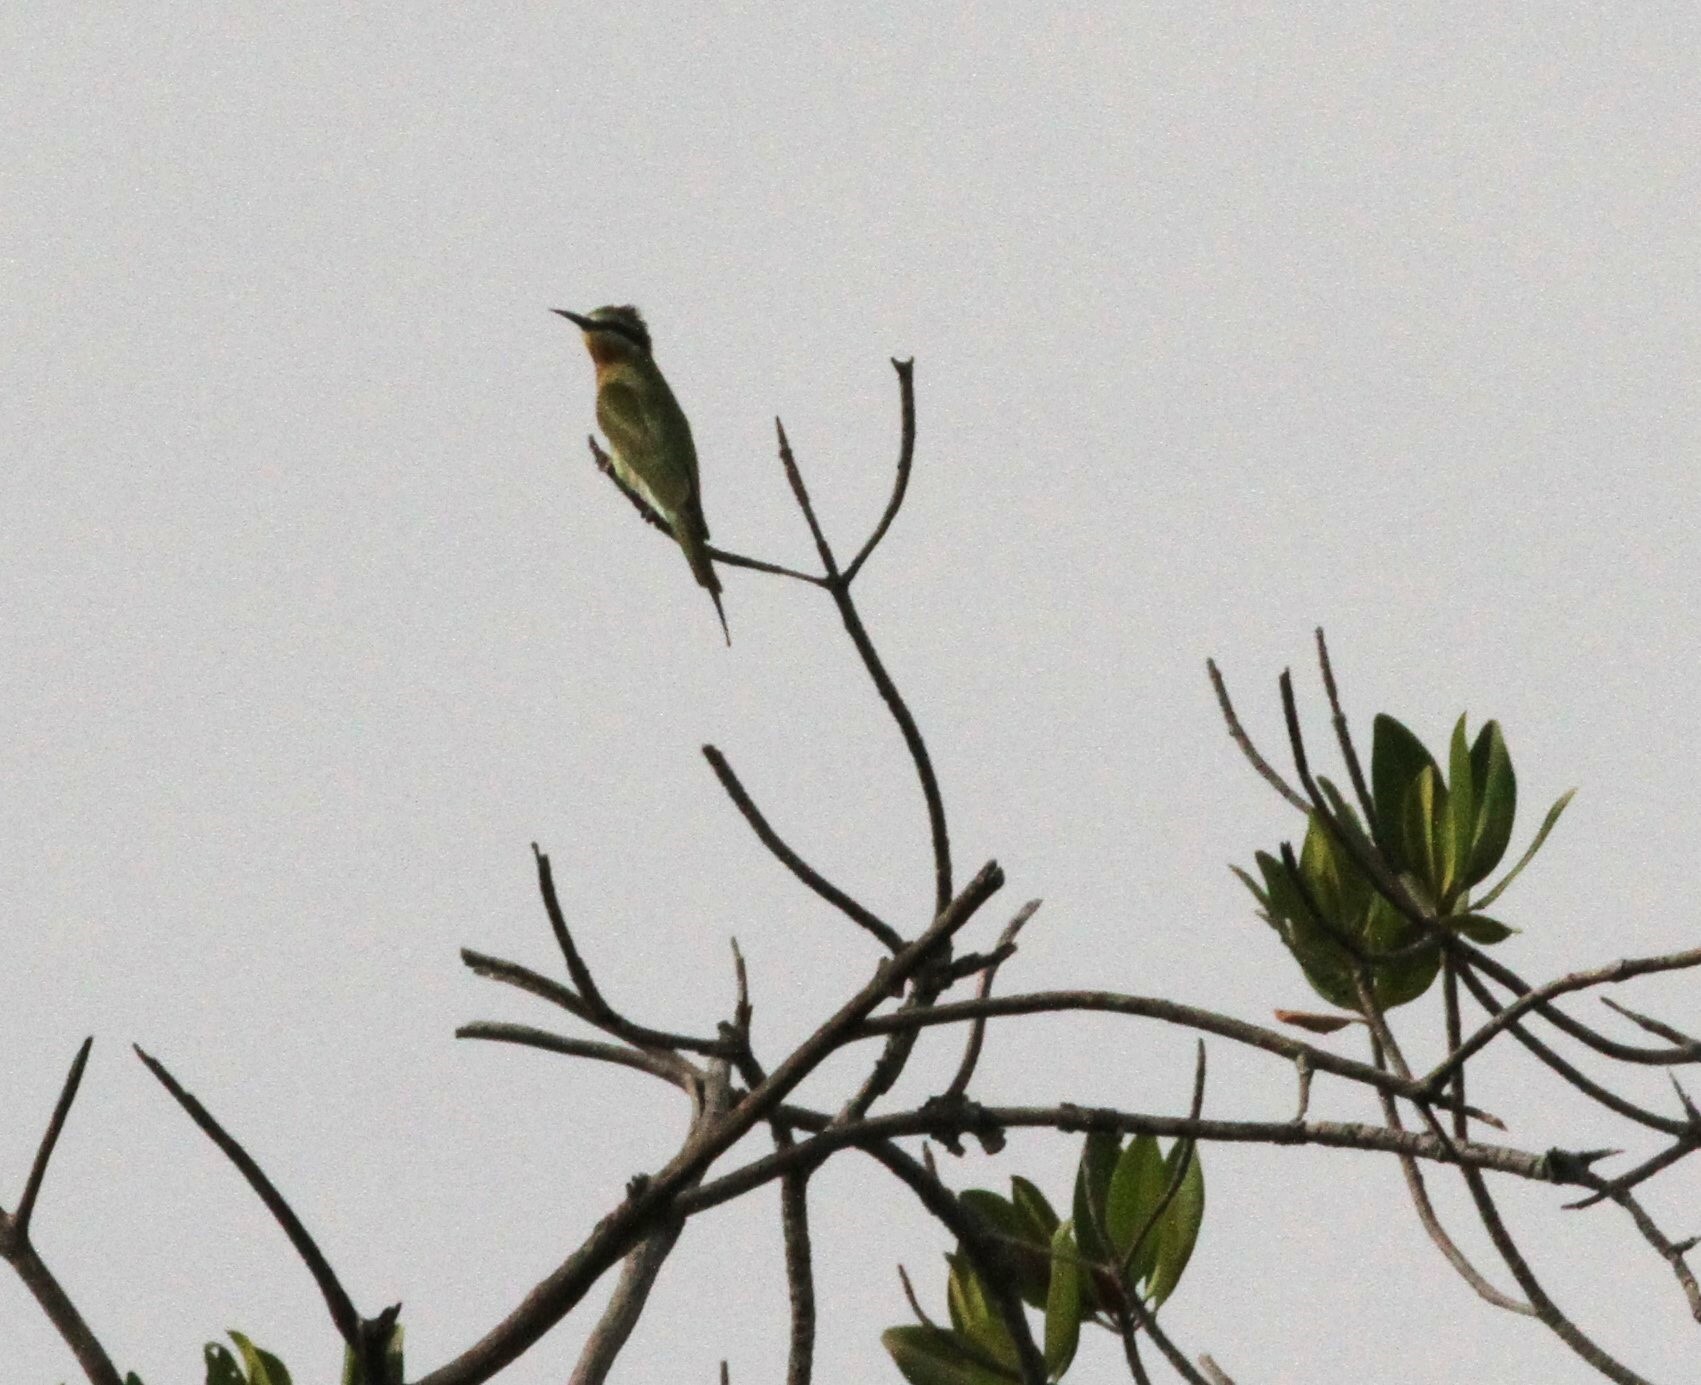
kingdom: Animalia
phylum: Chordata
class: Aves
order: Coraciiformes
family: Meropidae
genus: Merops
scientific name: Merops persicus
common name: Blue-cheeked bee-eater
